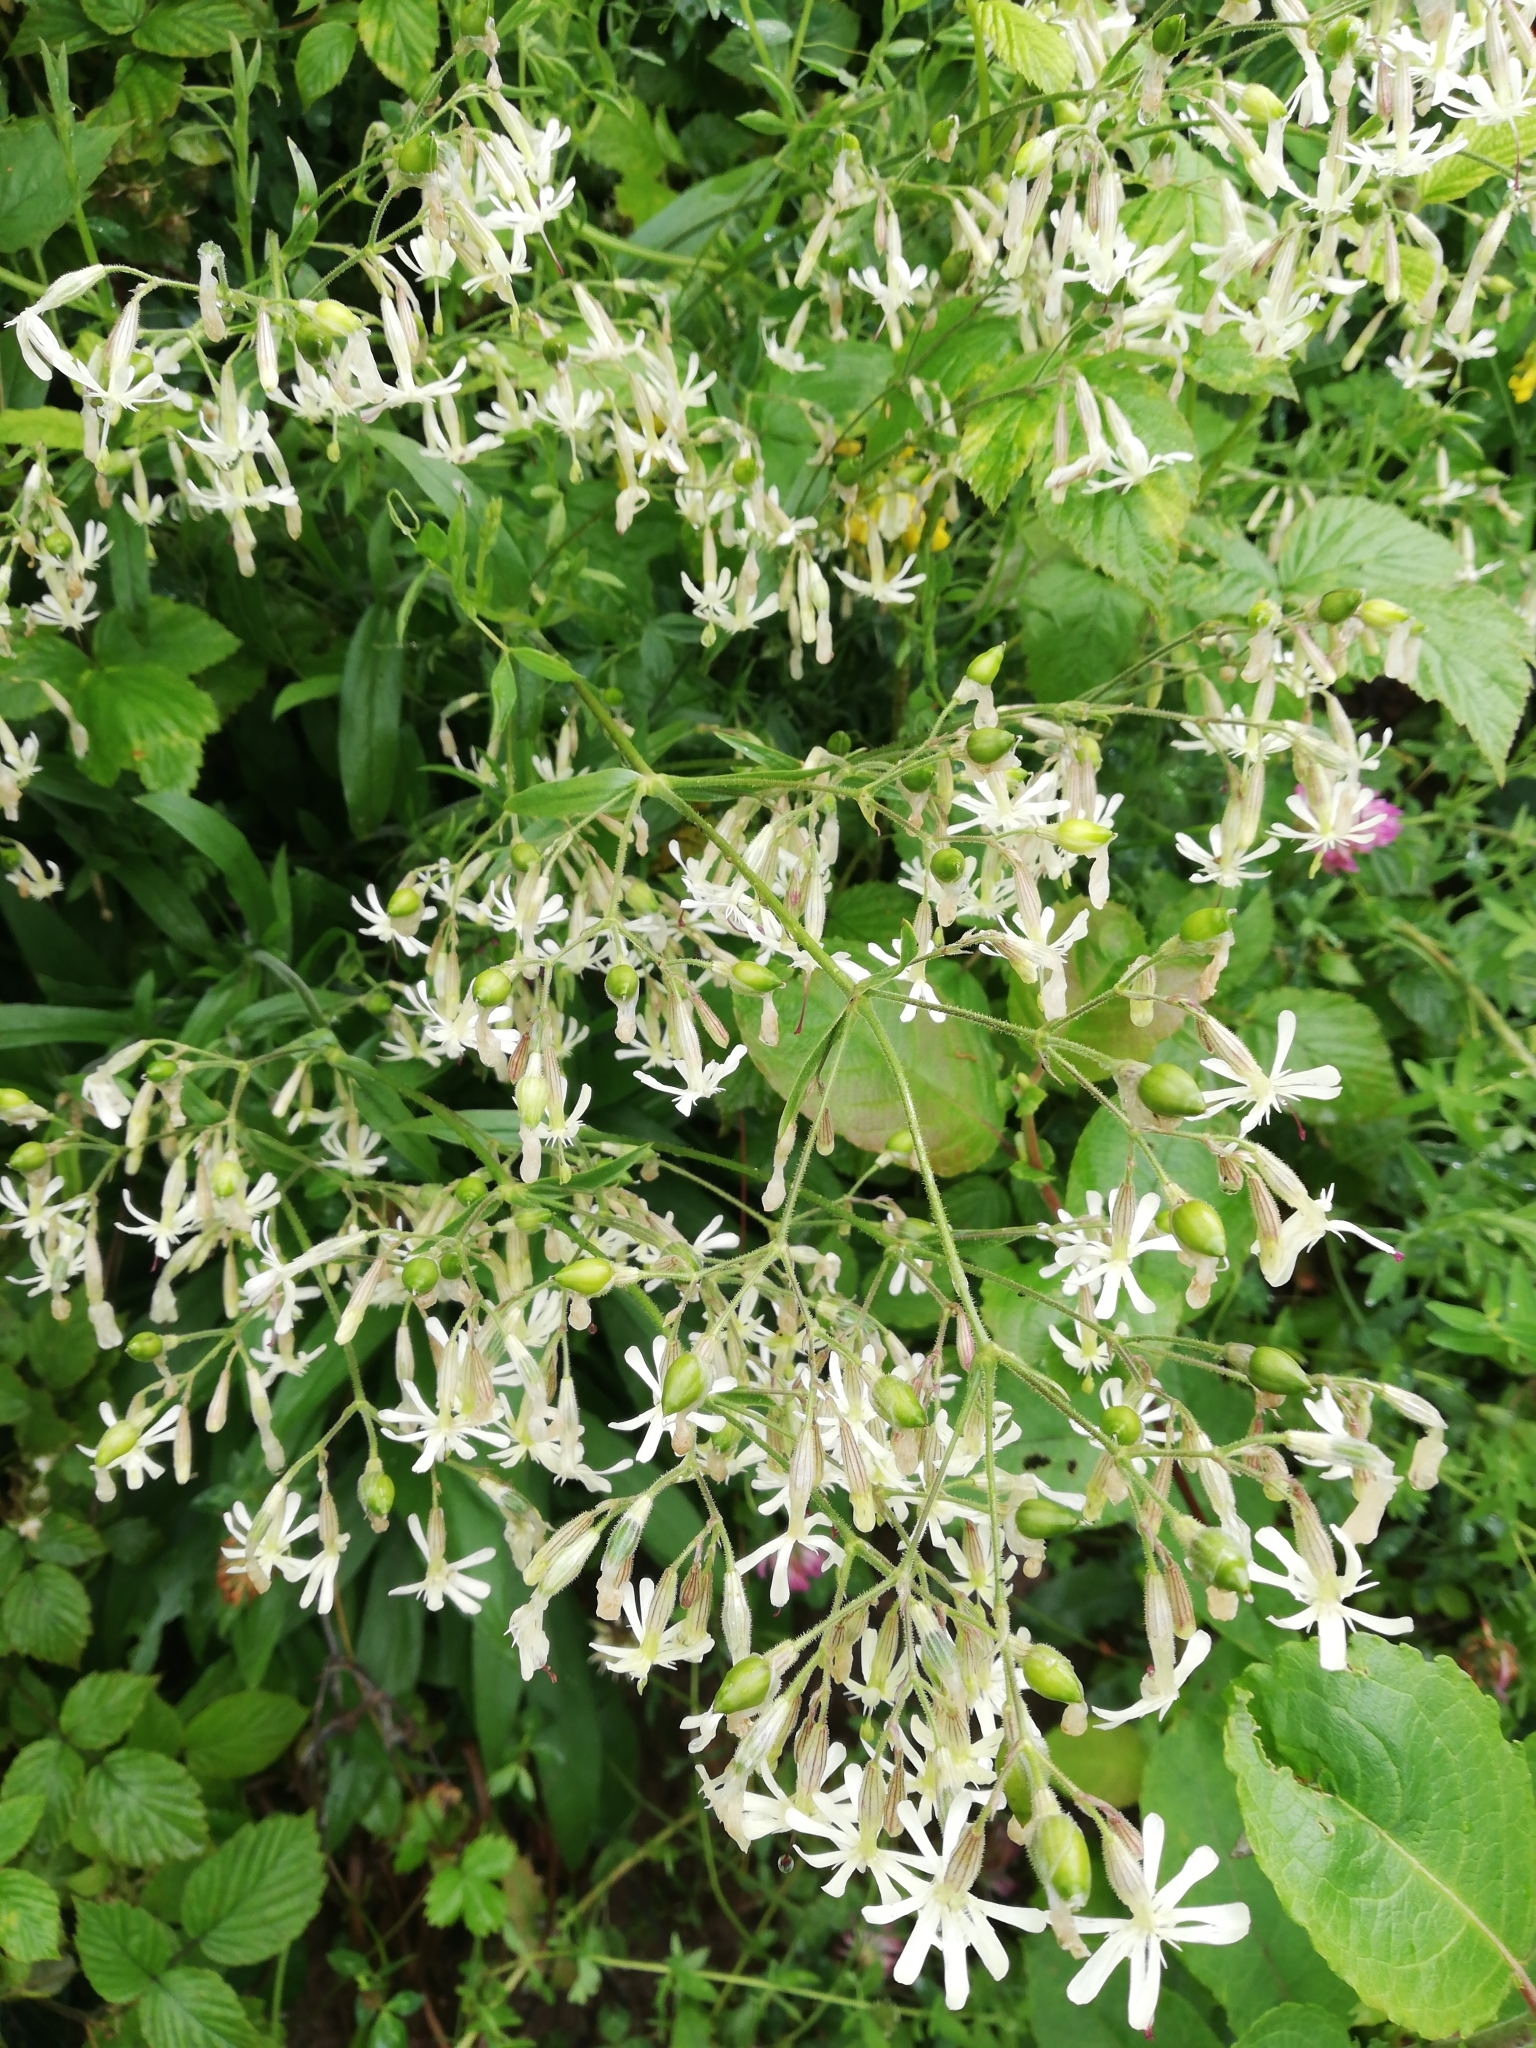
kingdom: Plantae
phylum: Tracheophyta
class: Magnoliopsida
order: Caryophyllales
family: Caryophyllaceae
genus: Silene
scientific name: Silene nutans
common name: Nottingham catchfly
